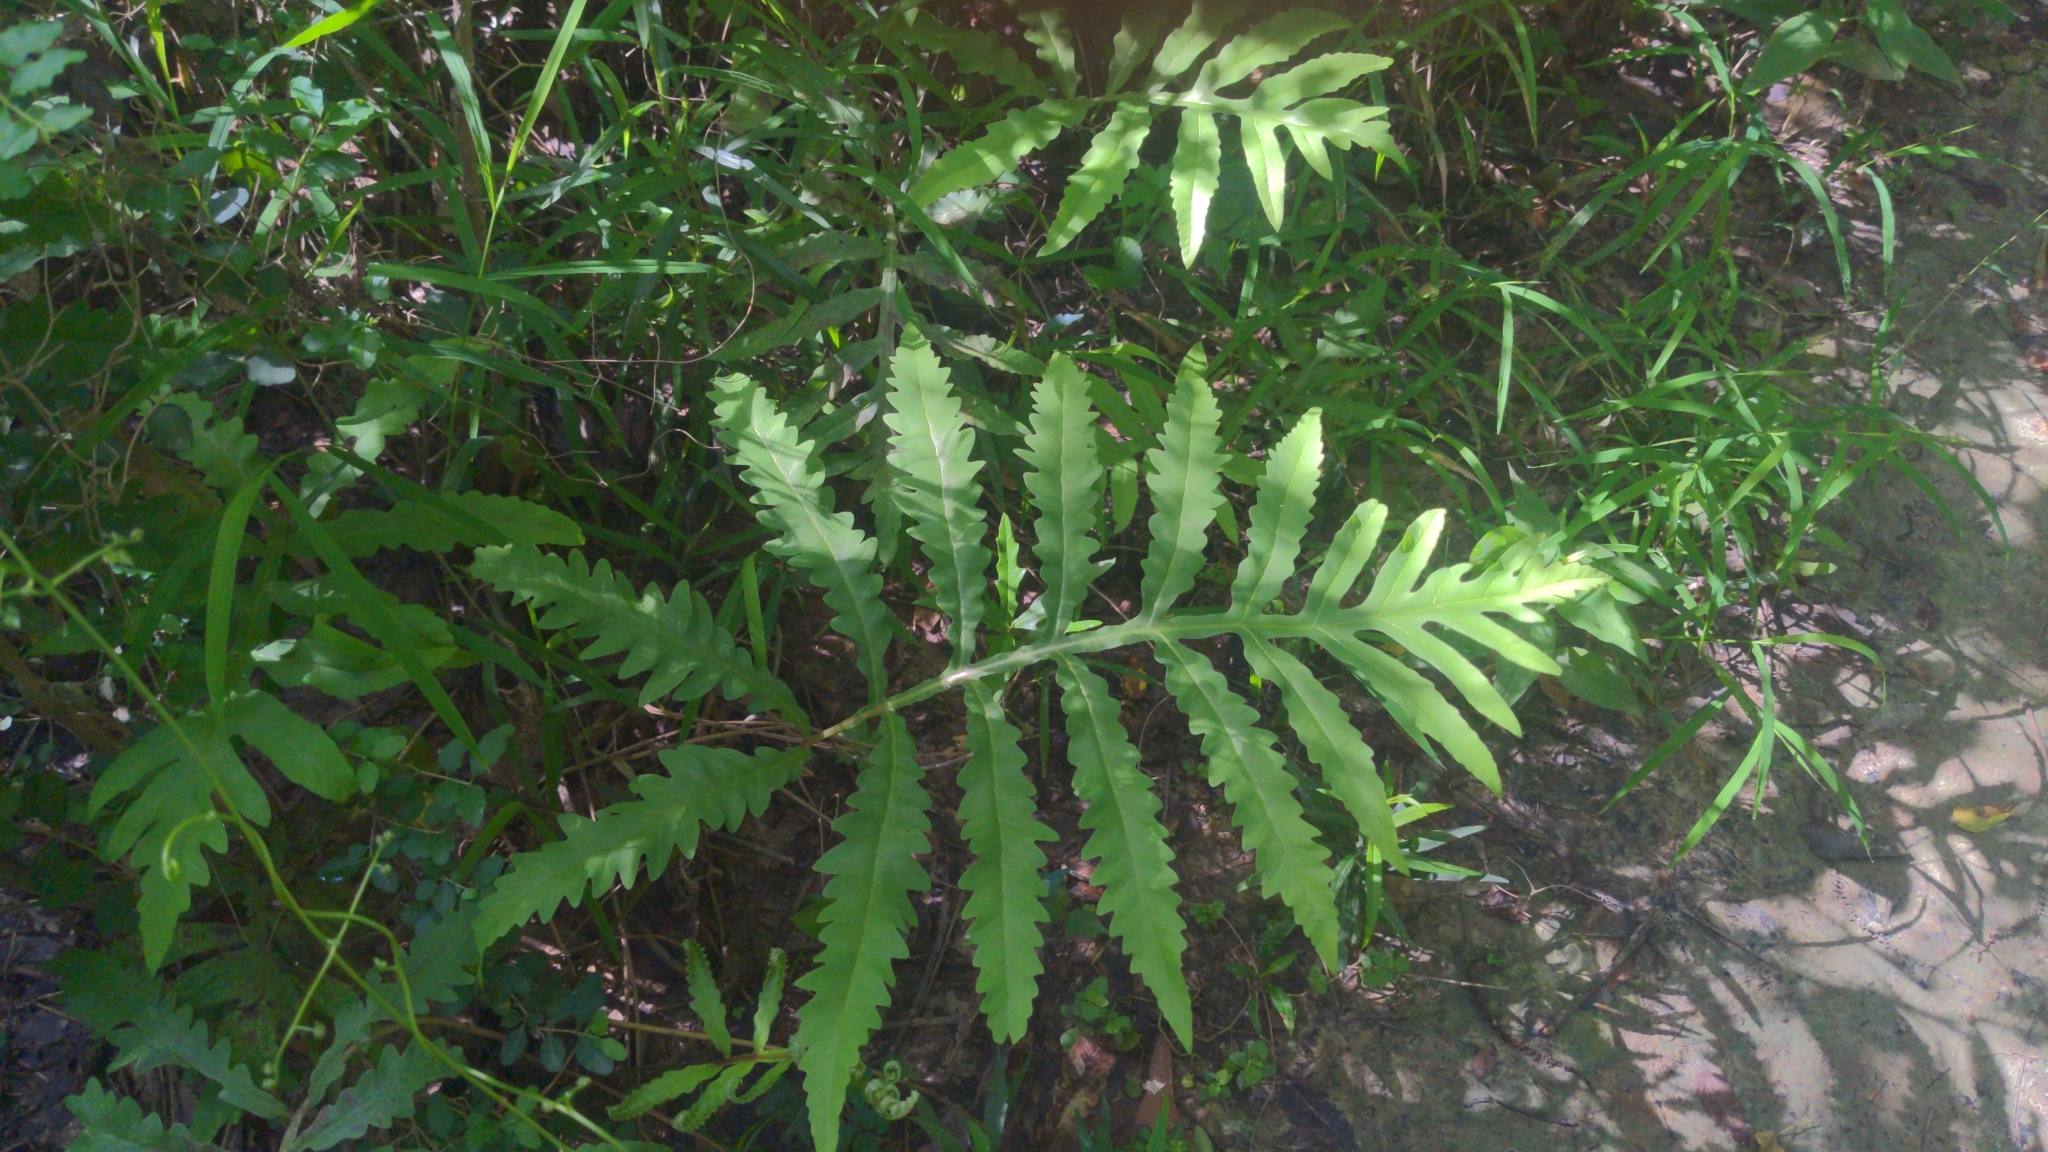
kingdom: Plantae
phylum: Tracheophyta
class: Polypodiopsida
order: Polypodiales
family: Onocleaceae
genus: Onoclea
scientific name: Onoclea sensibilis
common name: Sensitive fern
